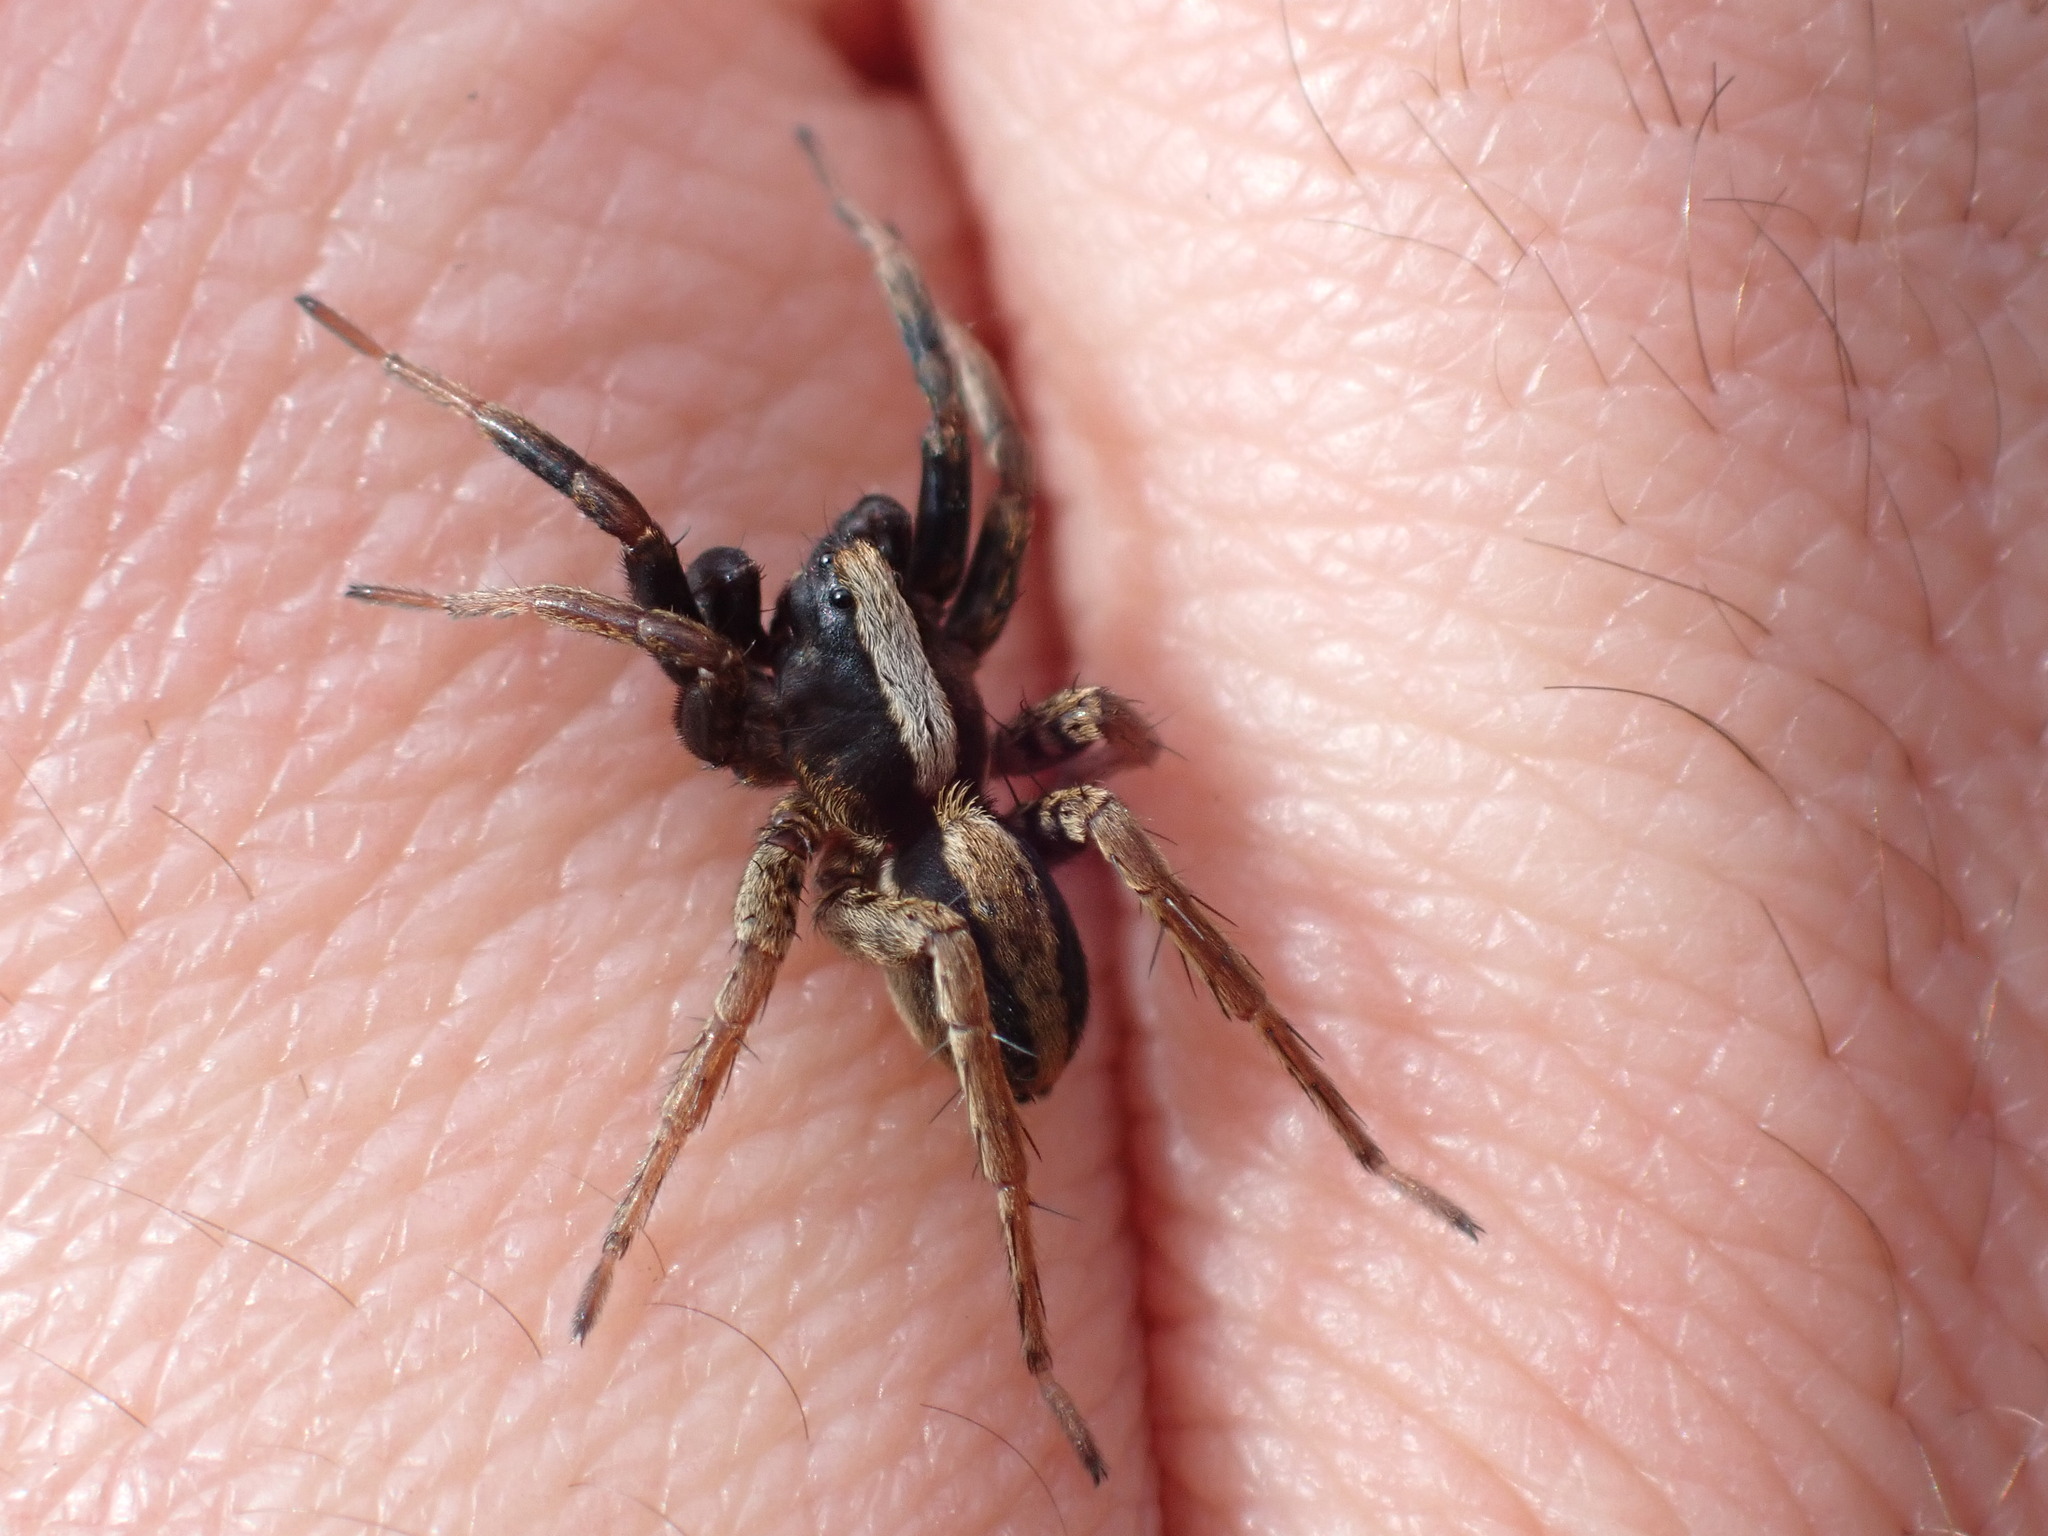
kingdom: Animalia
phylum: Arthropoda
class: Arachnida
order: Araneae
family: Lycosidae
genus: Alopecosa
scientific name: Alopecosa pulverulenta
